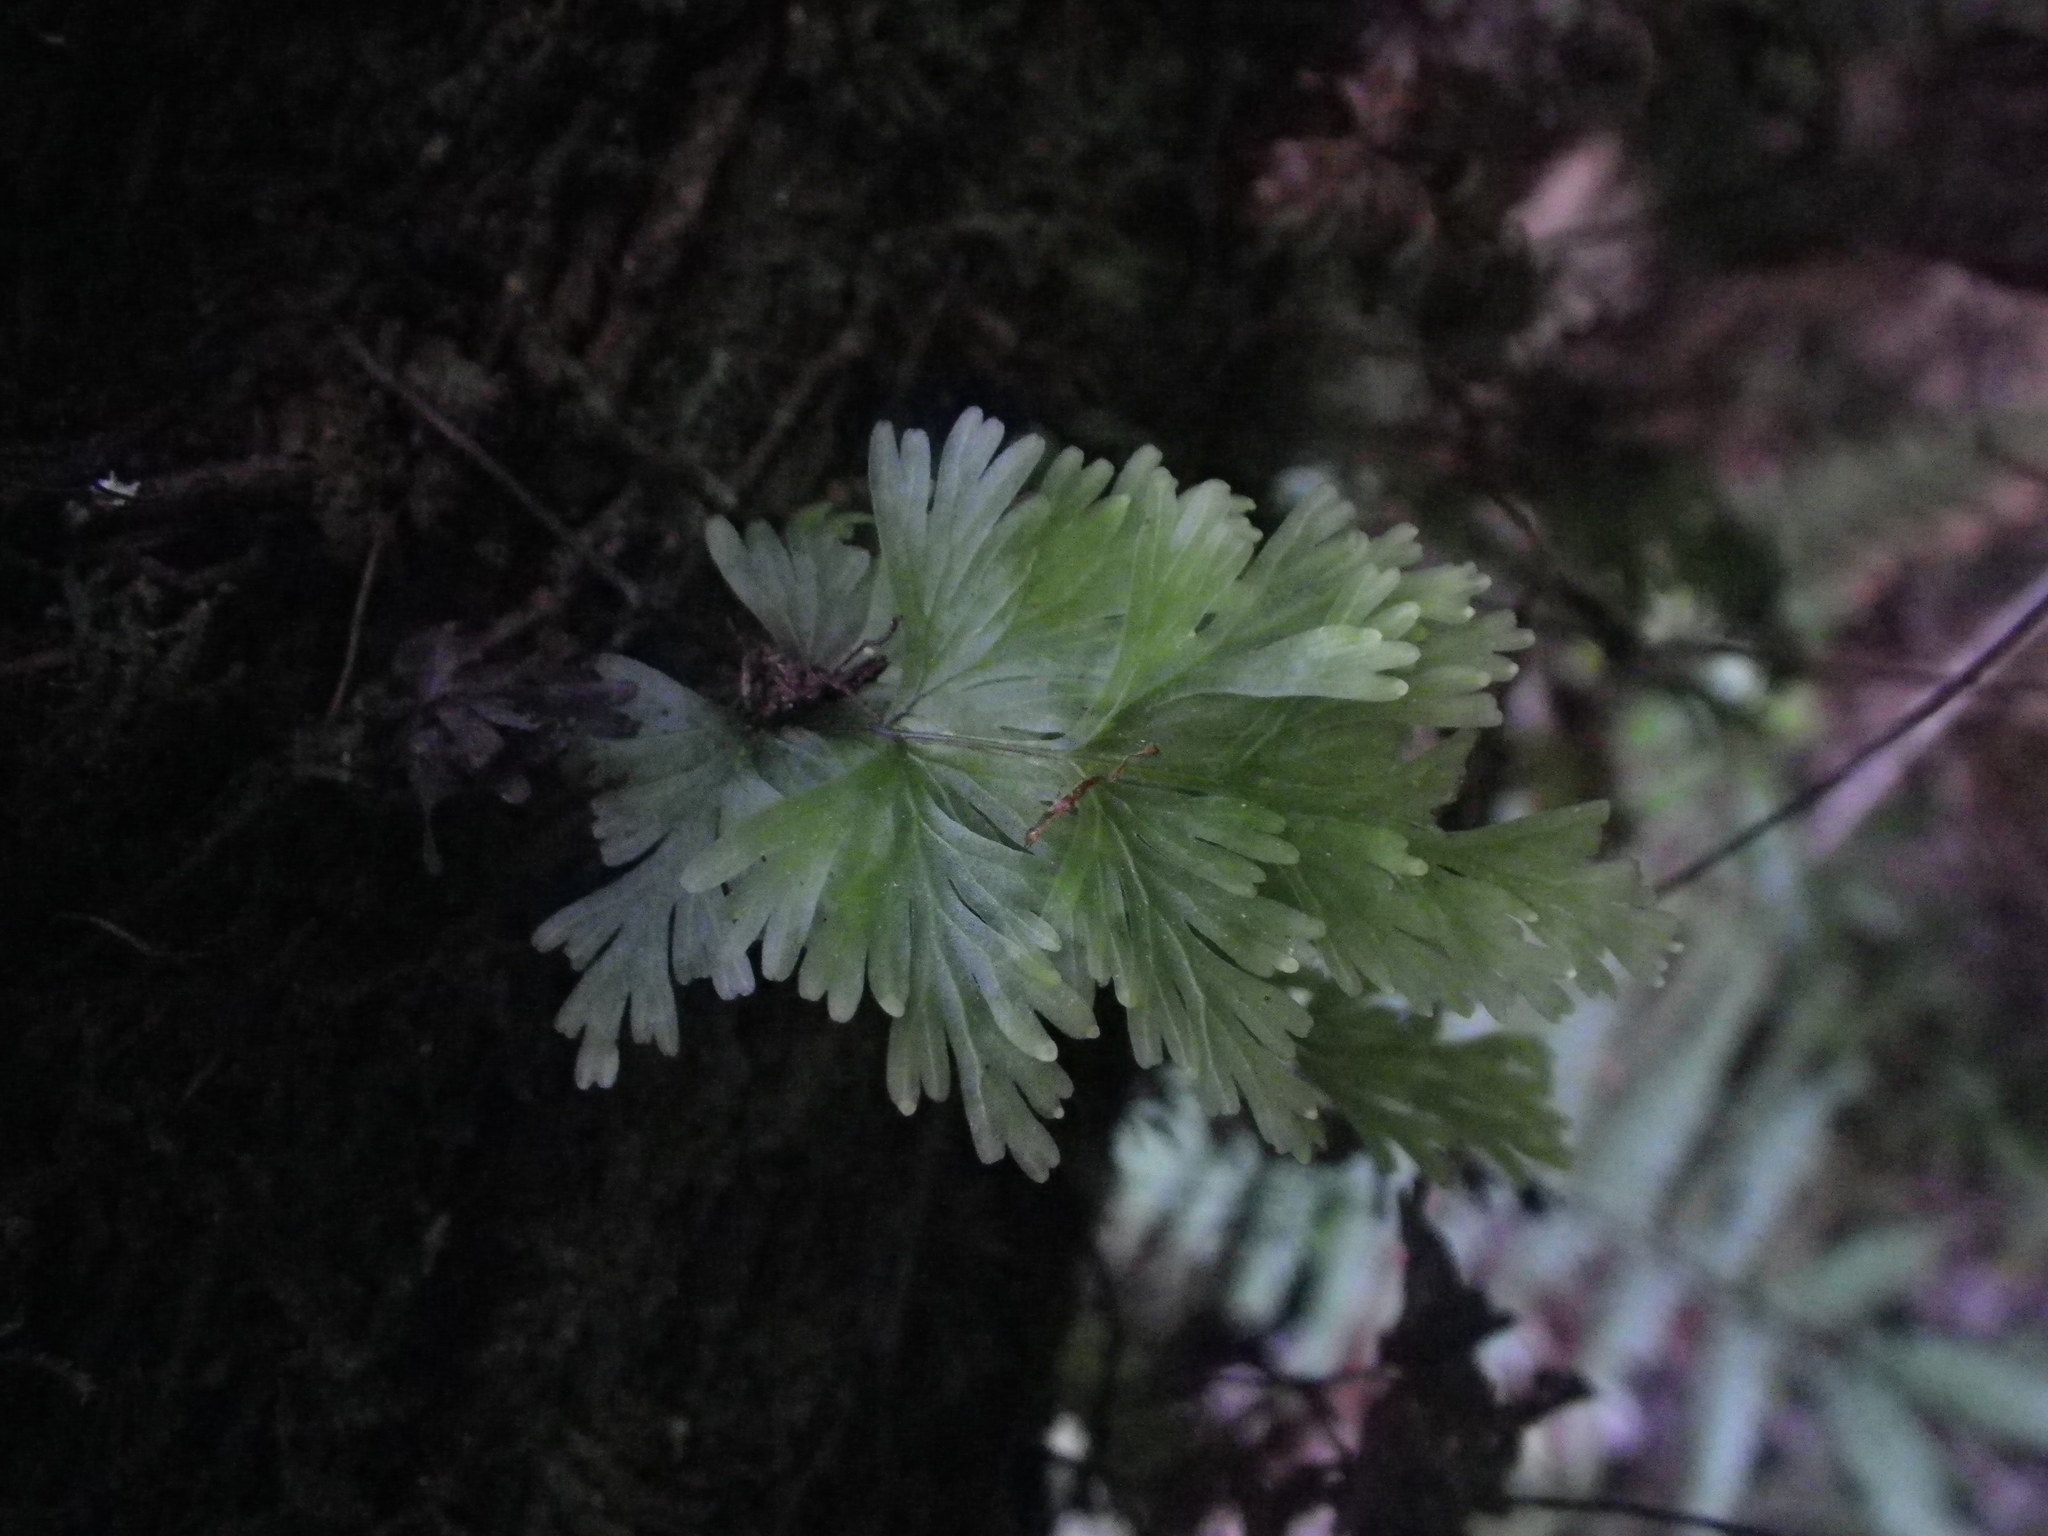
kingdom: Plantae
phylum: Tracheophyta
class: Polypodiopsida
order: Hymenophyllales
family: Hymenophyllaceae
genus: Hymenophyllum
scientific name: Hymenophyllum flabellatum
